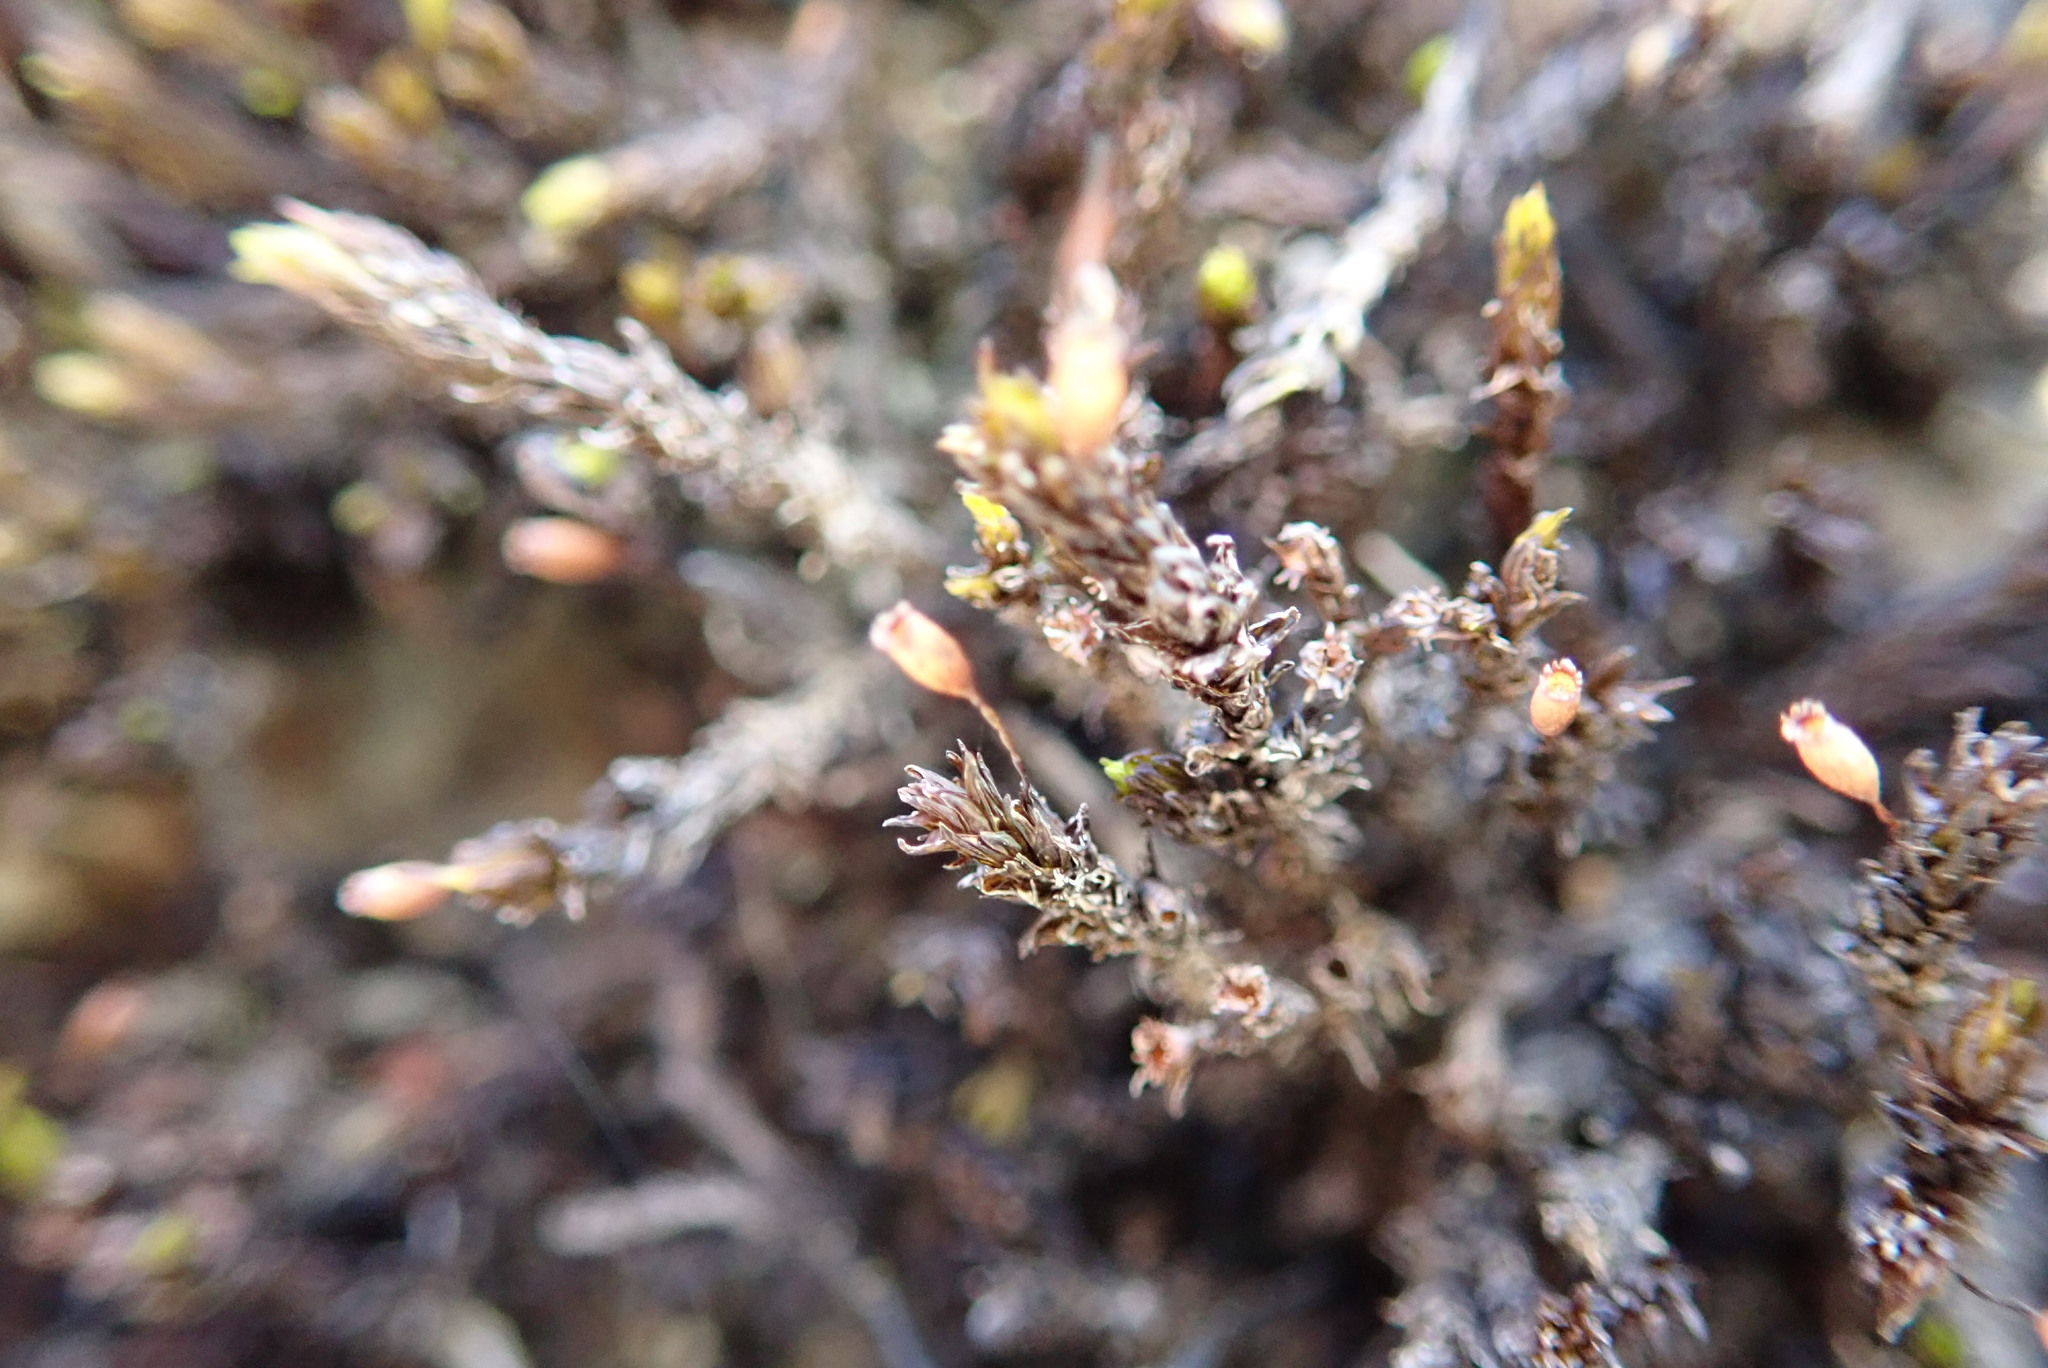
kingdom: Plantae
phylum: Bryophyta
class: Bryopsida
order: Grimmiales
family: Grimmiaceae
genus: Codriophorus
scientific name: Codriophorus acicularis
